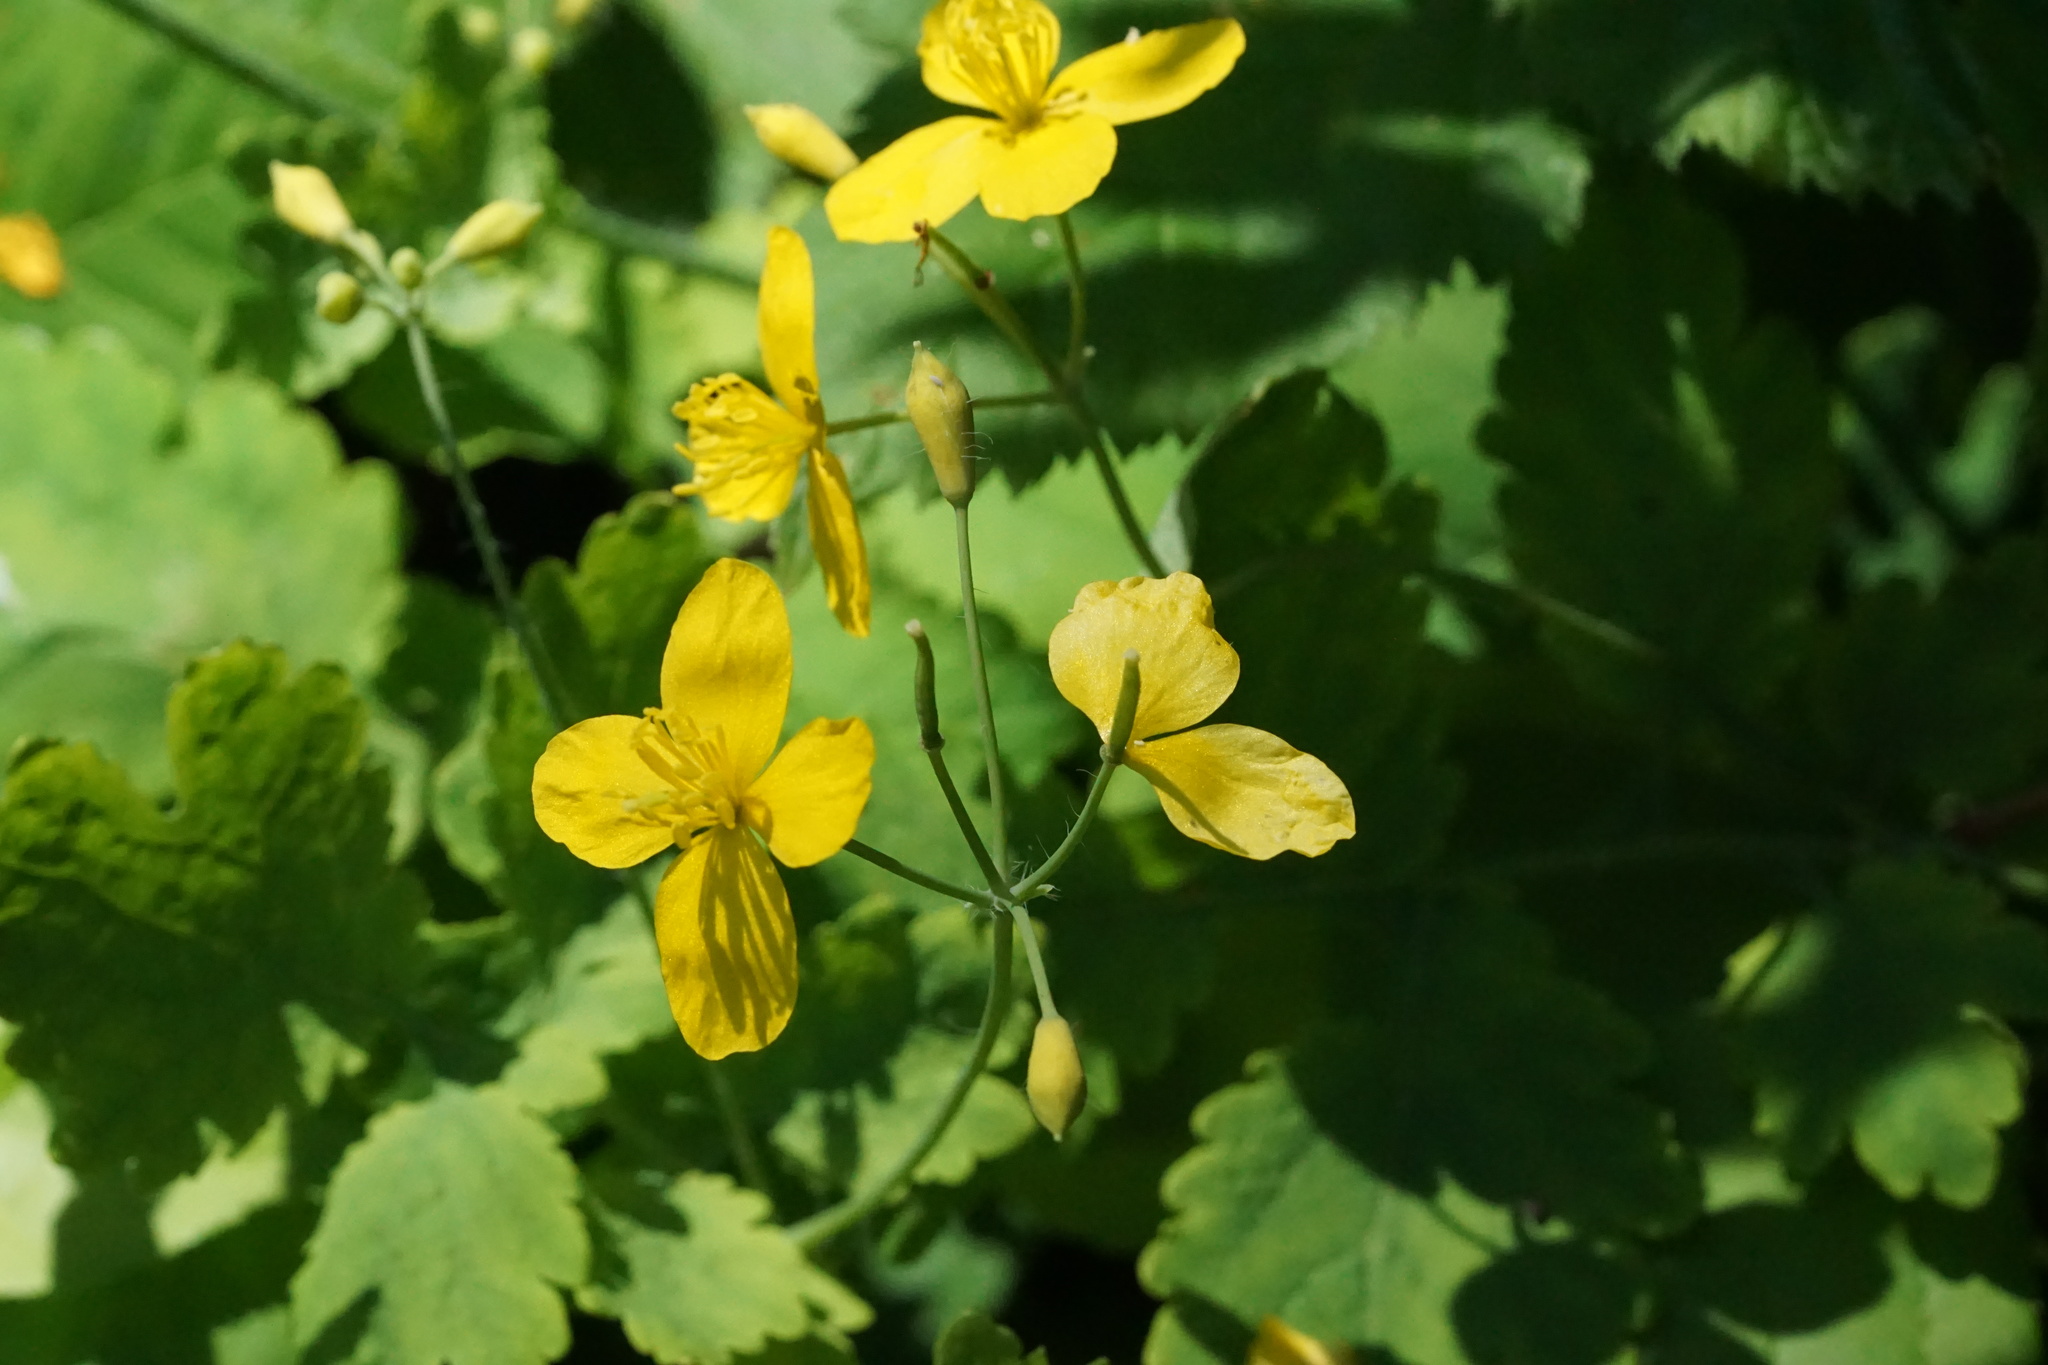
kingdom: Plantae
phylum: Tracheophyta
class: Magnoliopsida
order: Ranunculales
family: Papaveraceae
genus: Chelidonium
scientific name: Chelidonium majus
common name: Greater celandine
